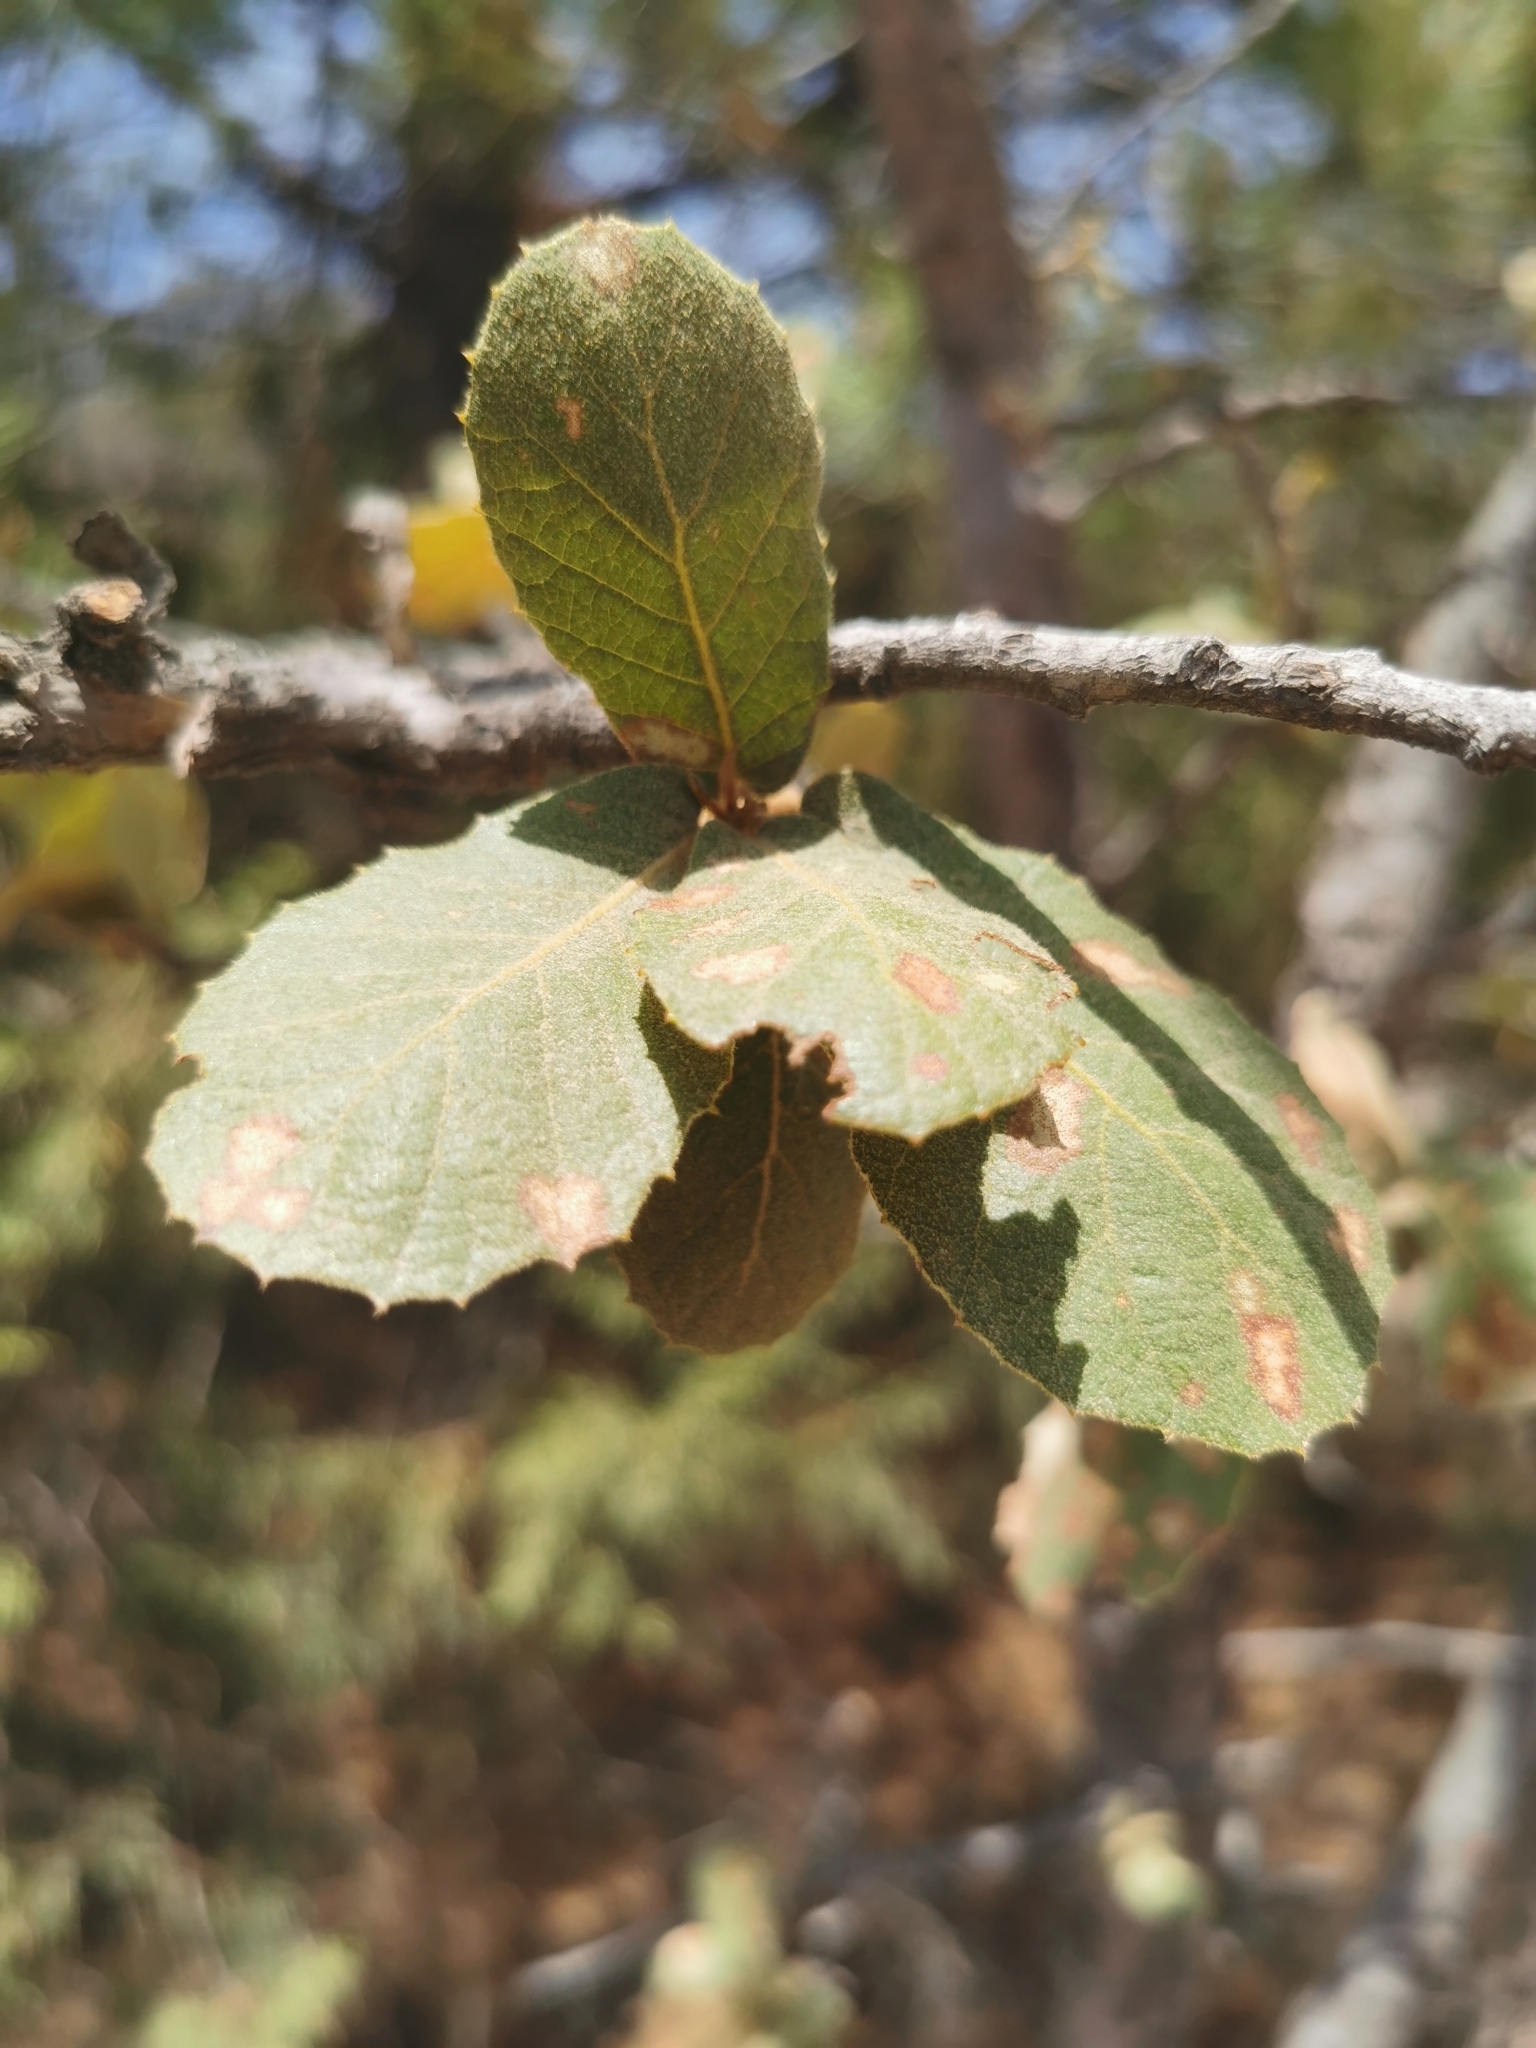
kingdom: Plantae
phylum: Tracheophyta
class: Magnoliopsida
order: Fagales
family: Fagaceae
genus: Quercus
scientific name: Quercus convallata
